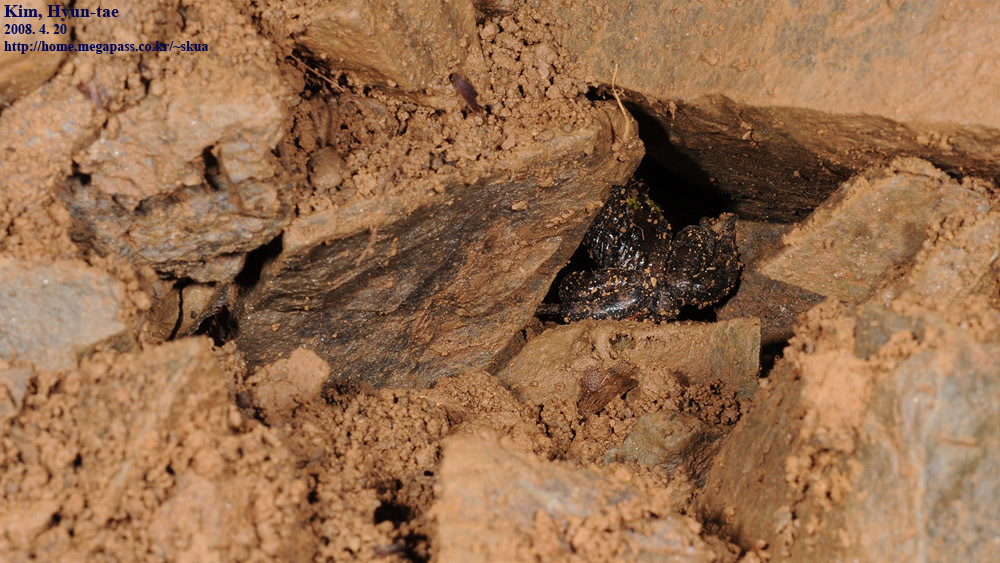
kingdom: Animalia
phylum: Chordata
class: Amphibia
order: Anura
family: Bombinatoridae
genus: Bombina
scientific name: Bombina orientalis
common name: Oriental firebelly toad
